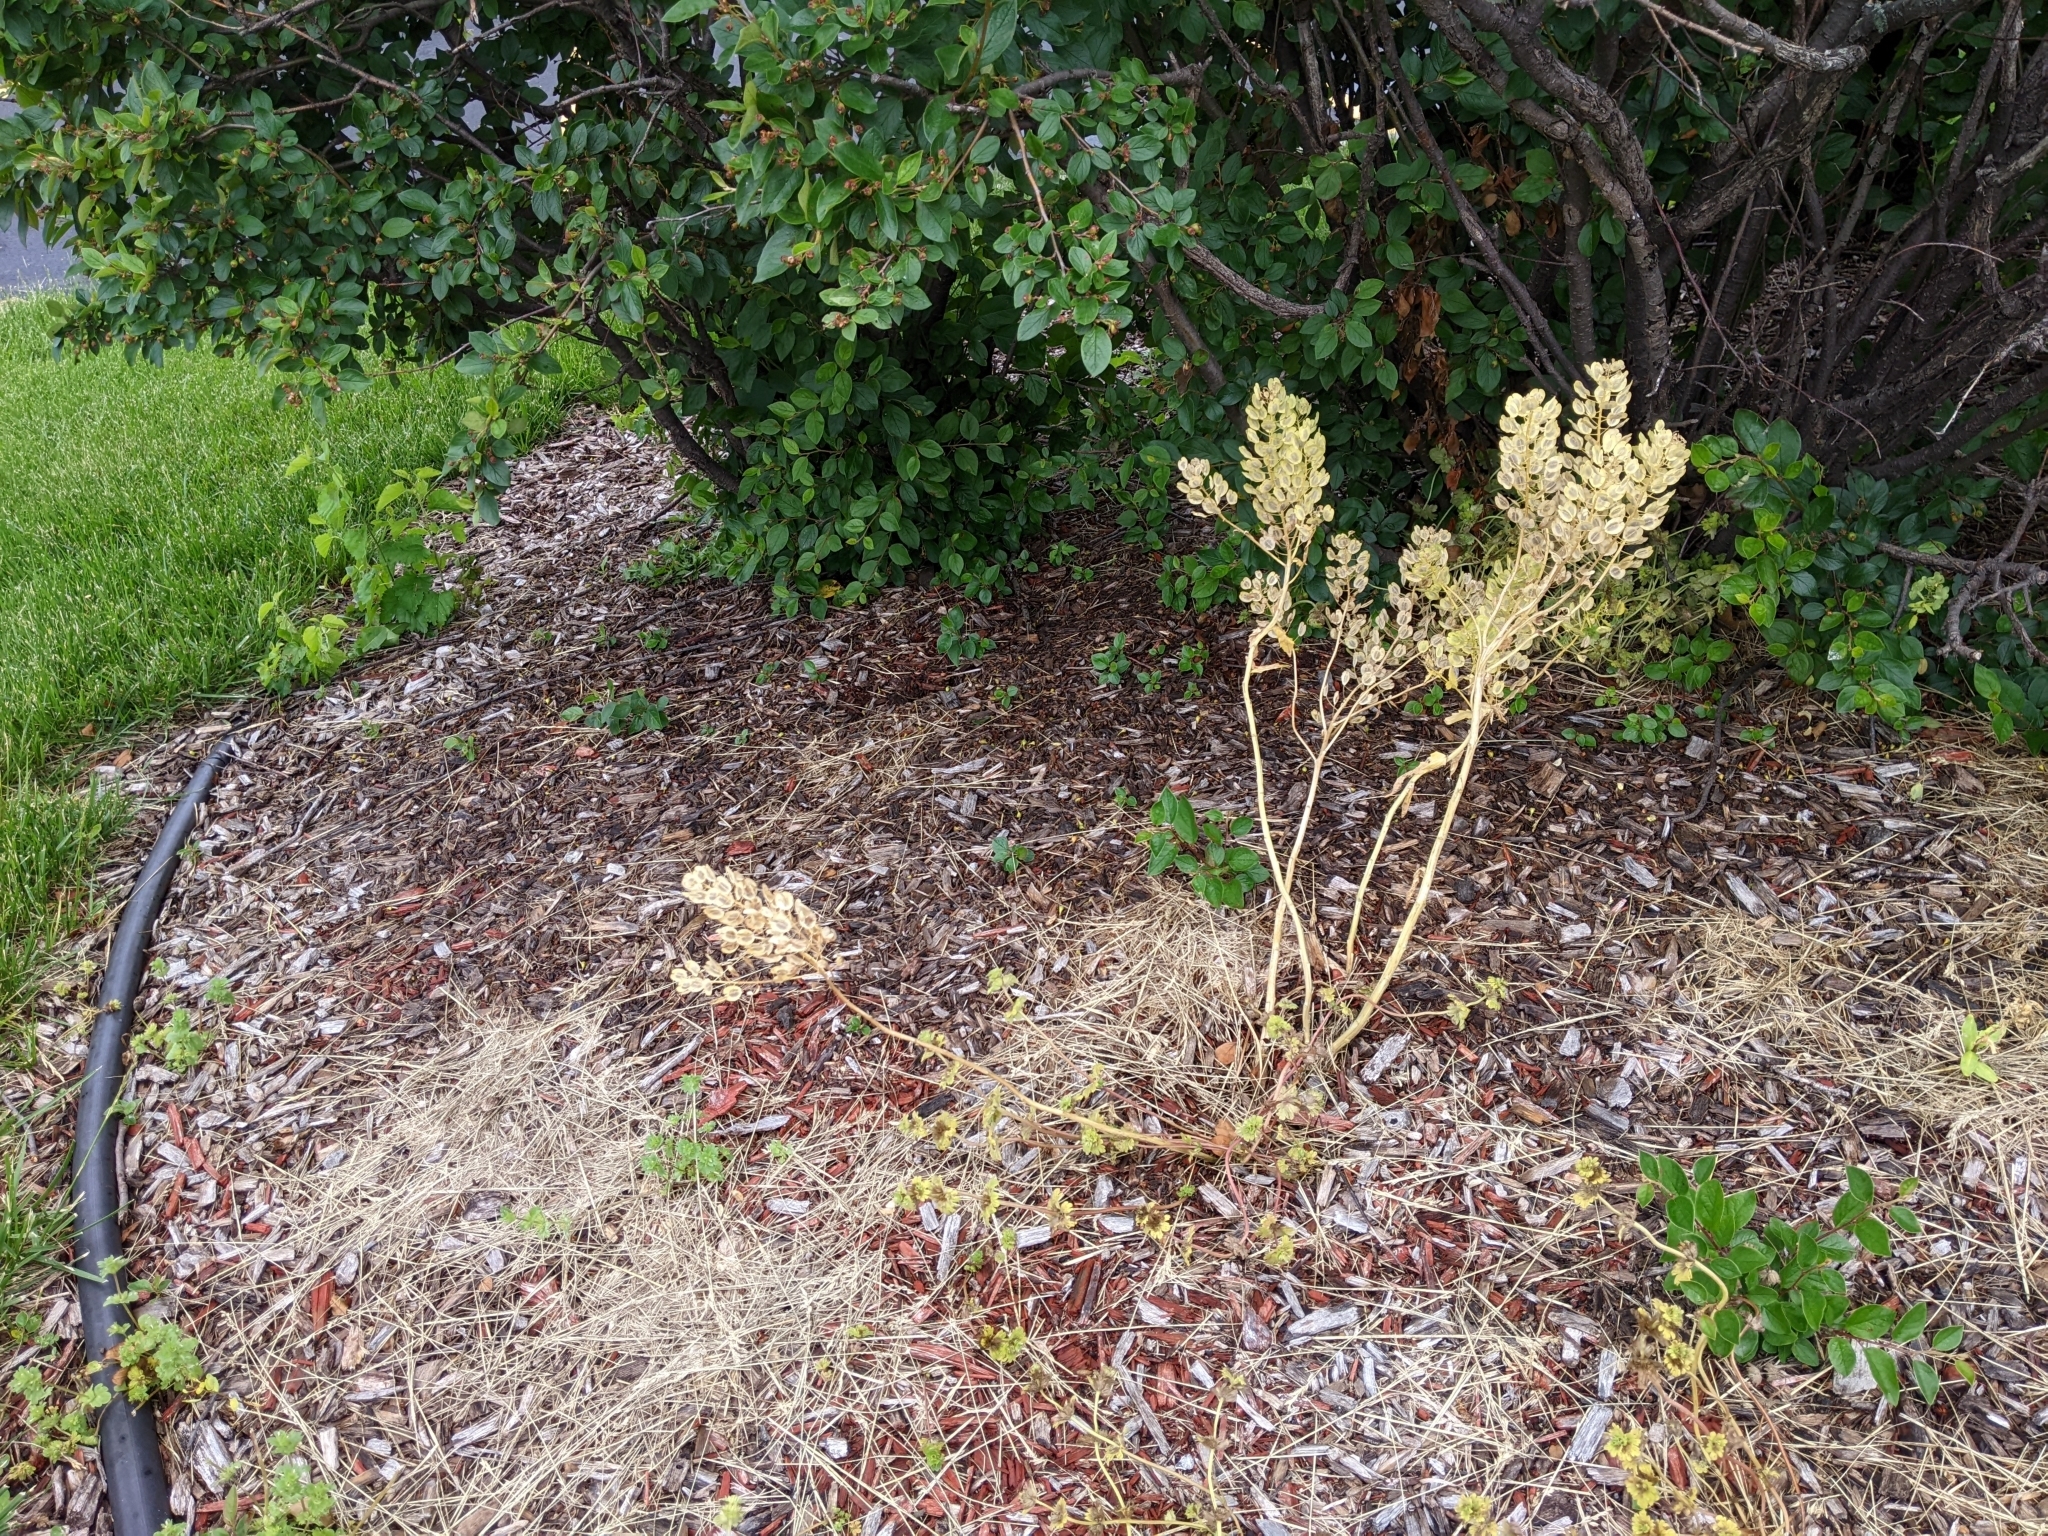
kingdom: Plantae
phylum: Tracheophyta
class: Magnoliopsida
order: Brassicales
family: Brassicaceae
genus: Thlaspi
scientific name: Thlaspi arvense
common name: Field pennycress
